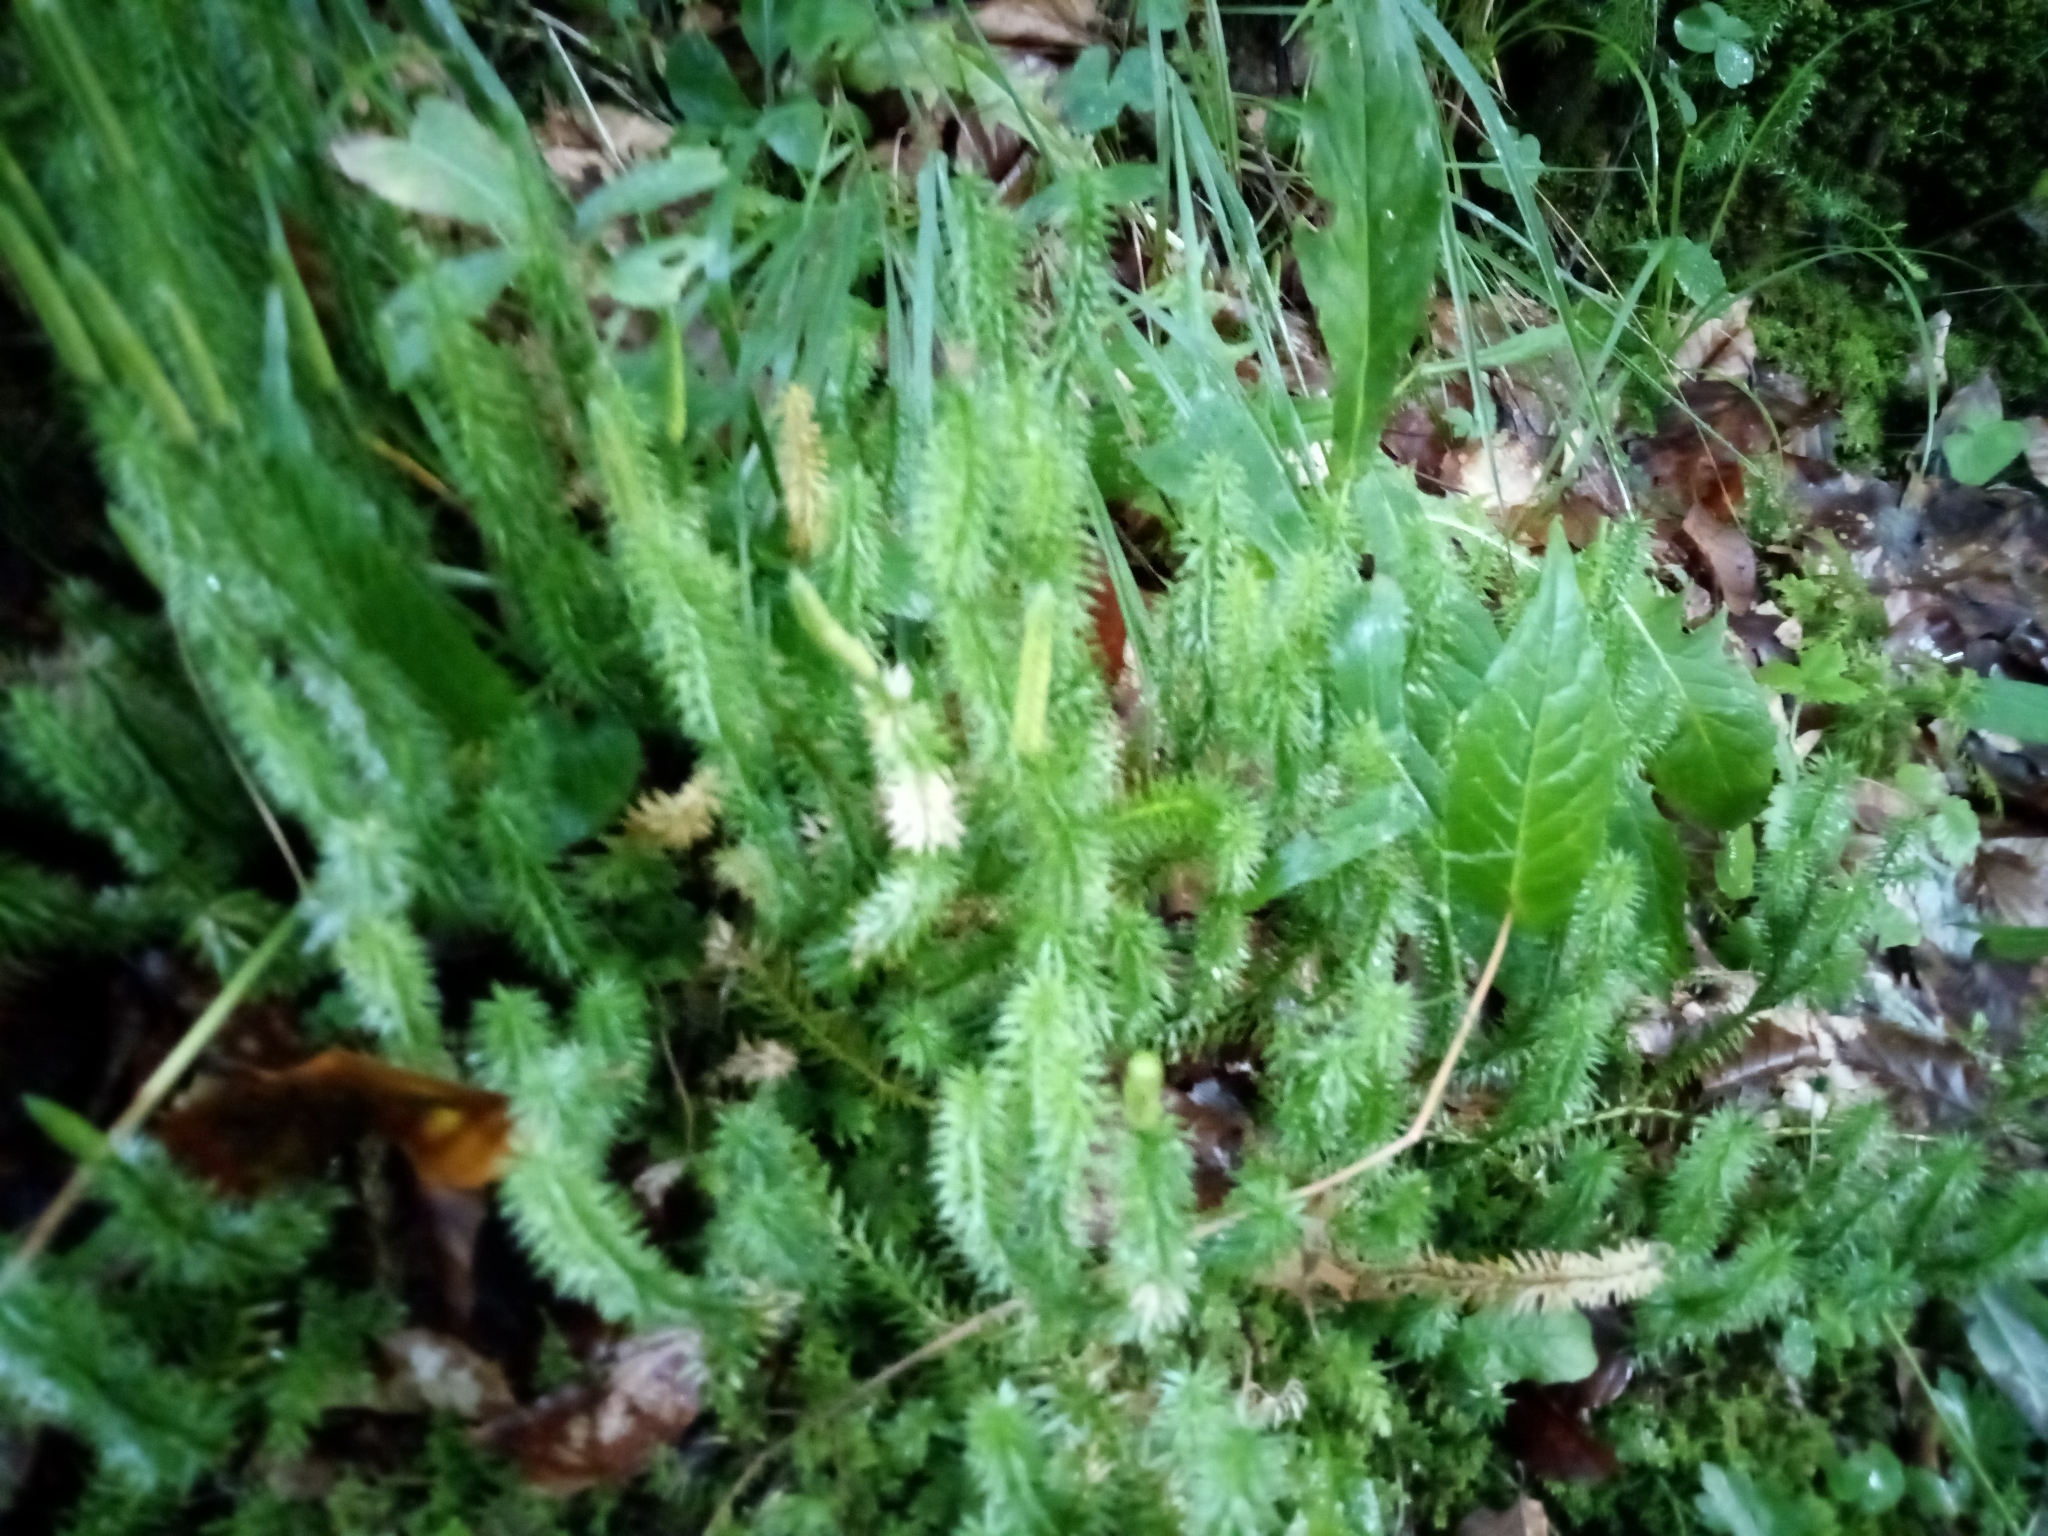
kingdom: Plantae
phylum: Tracheophyta
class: Lycopodiopsida
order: Lycopodiales
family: Lycopodiaceae
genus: Spinulum
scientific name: Spinulum annotinum
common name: Interrupted club-moss
